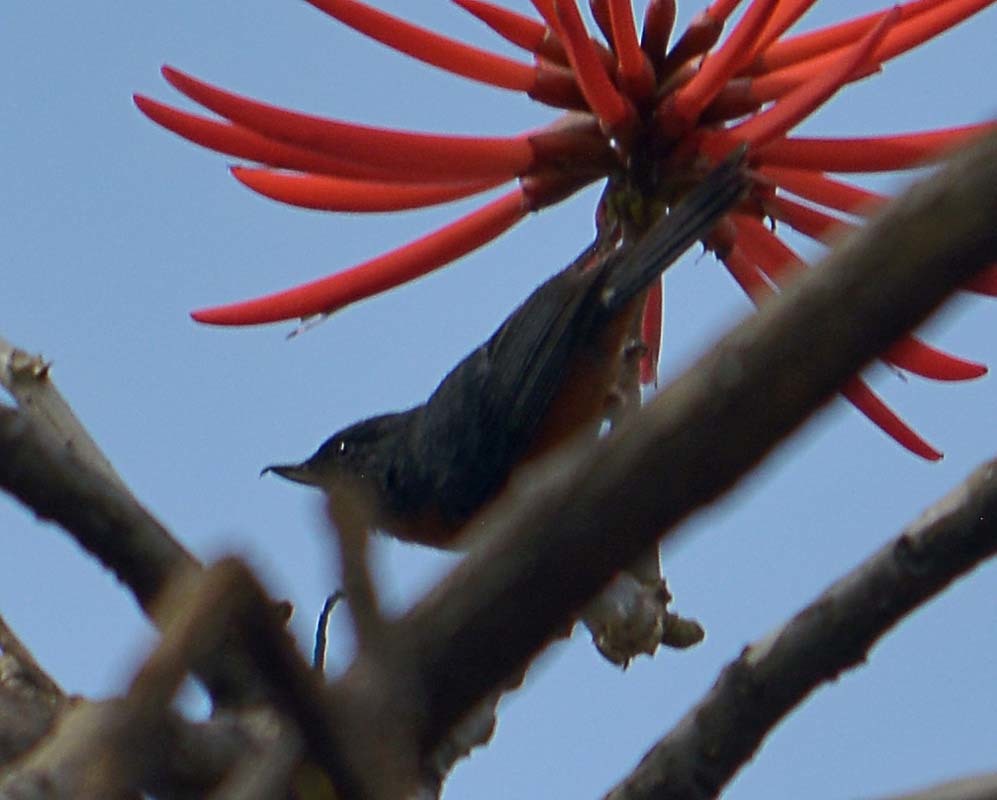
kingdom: Animalia
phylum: Chordata
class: Aves
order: Passeriformes
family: Thraupidae
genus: Diglossa
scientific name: Diglossa baritula
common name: Cinnamon-bellied flowerpiercer
